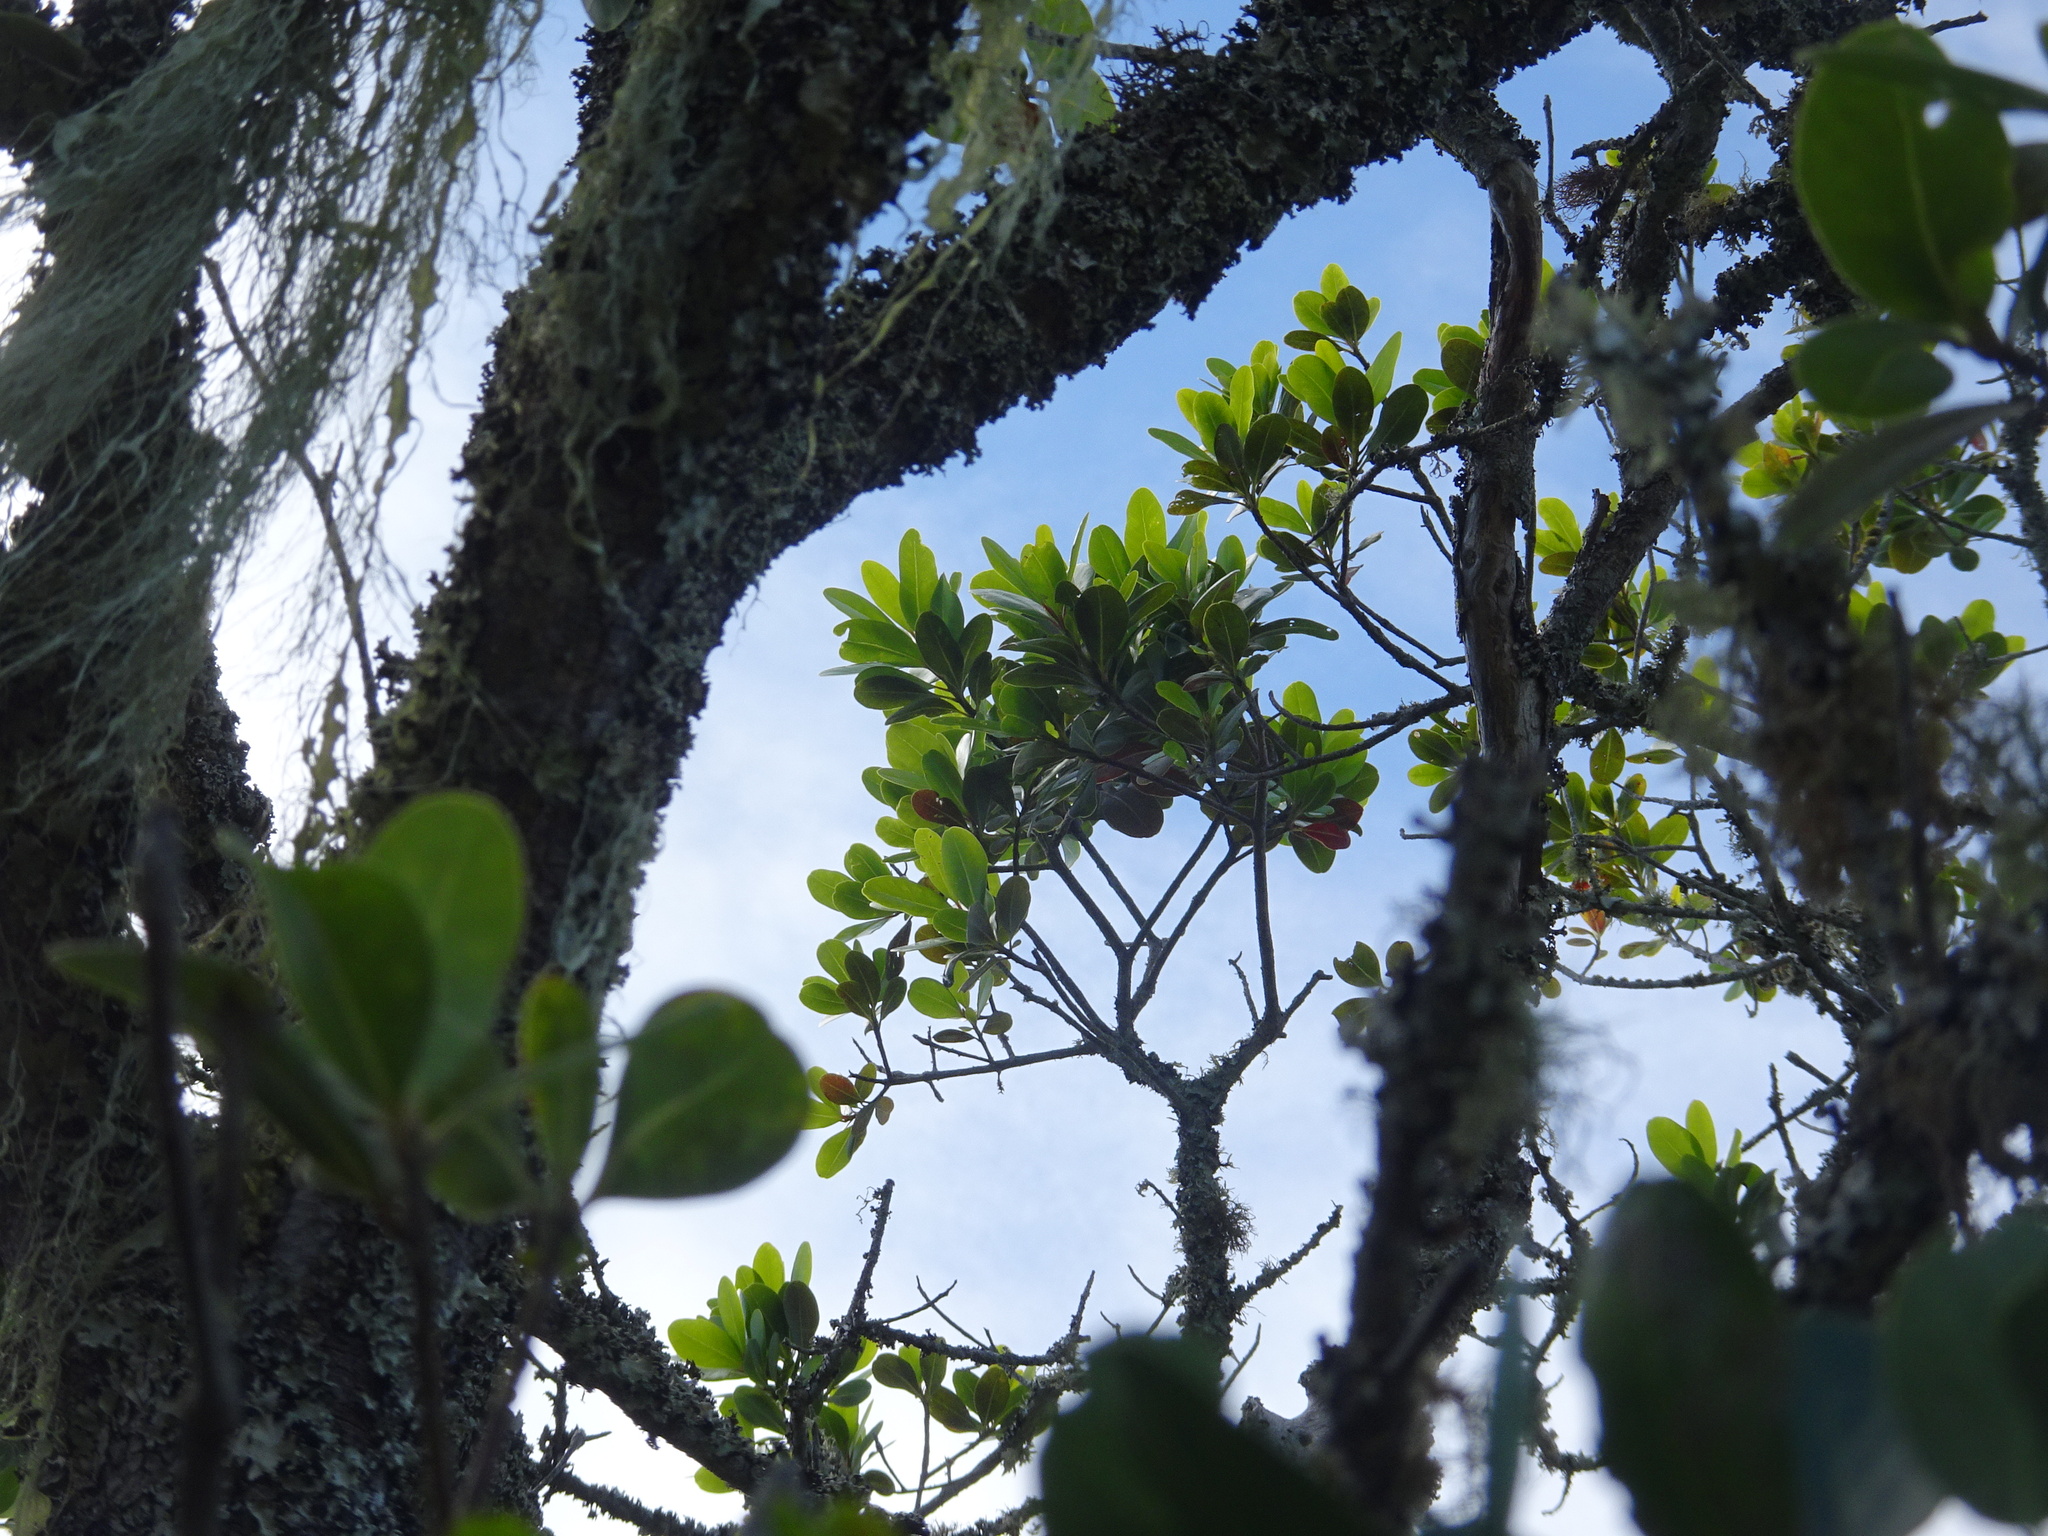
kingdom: Plantae
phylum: Tracheophyta
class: Magnoliopsida
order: Apiales
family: Pittosporaceae
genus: Pittosporum
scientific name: Pittosporum viridiflorum
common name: Cape cheesewood
